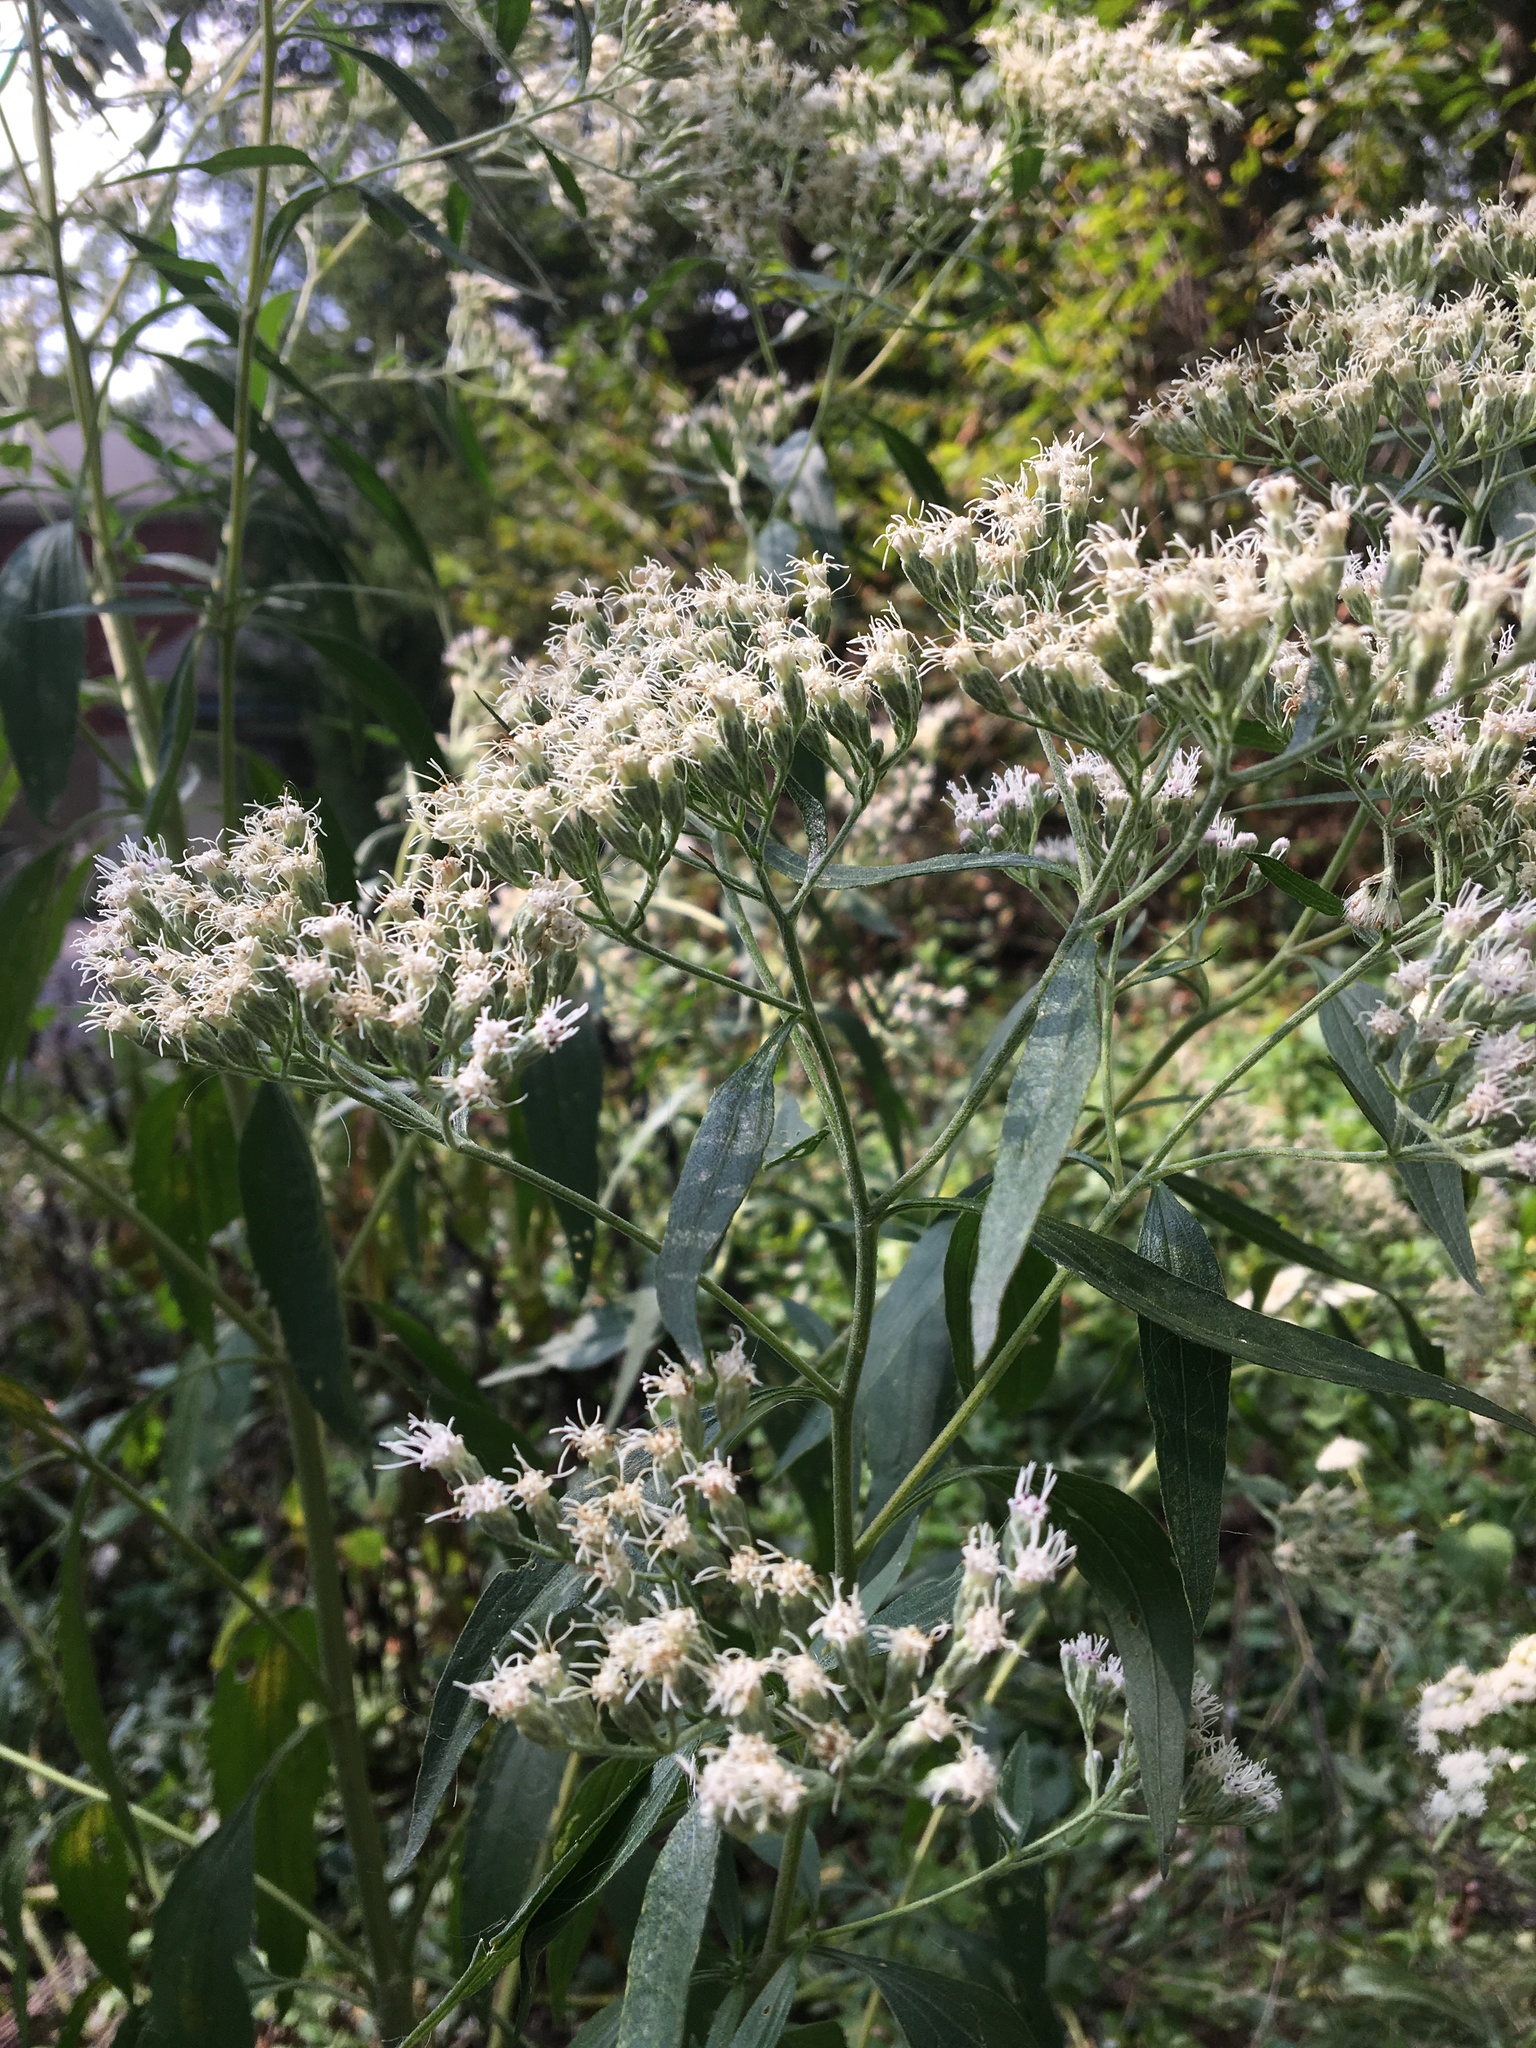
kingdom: Plantae
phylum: Tracheophyta
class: Magnoliopsida
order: Asterales
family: Asteraceae
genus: Eupatorium
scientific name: Eupatorium serotinum
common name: Late boneset
